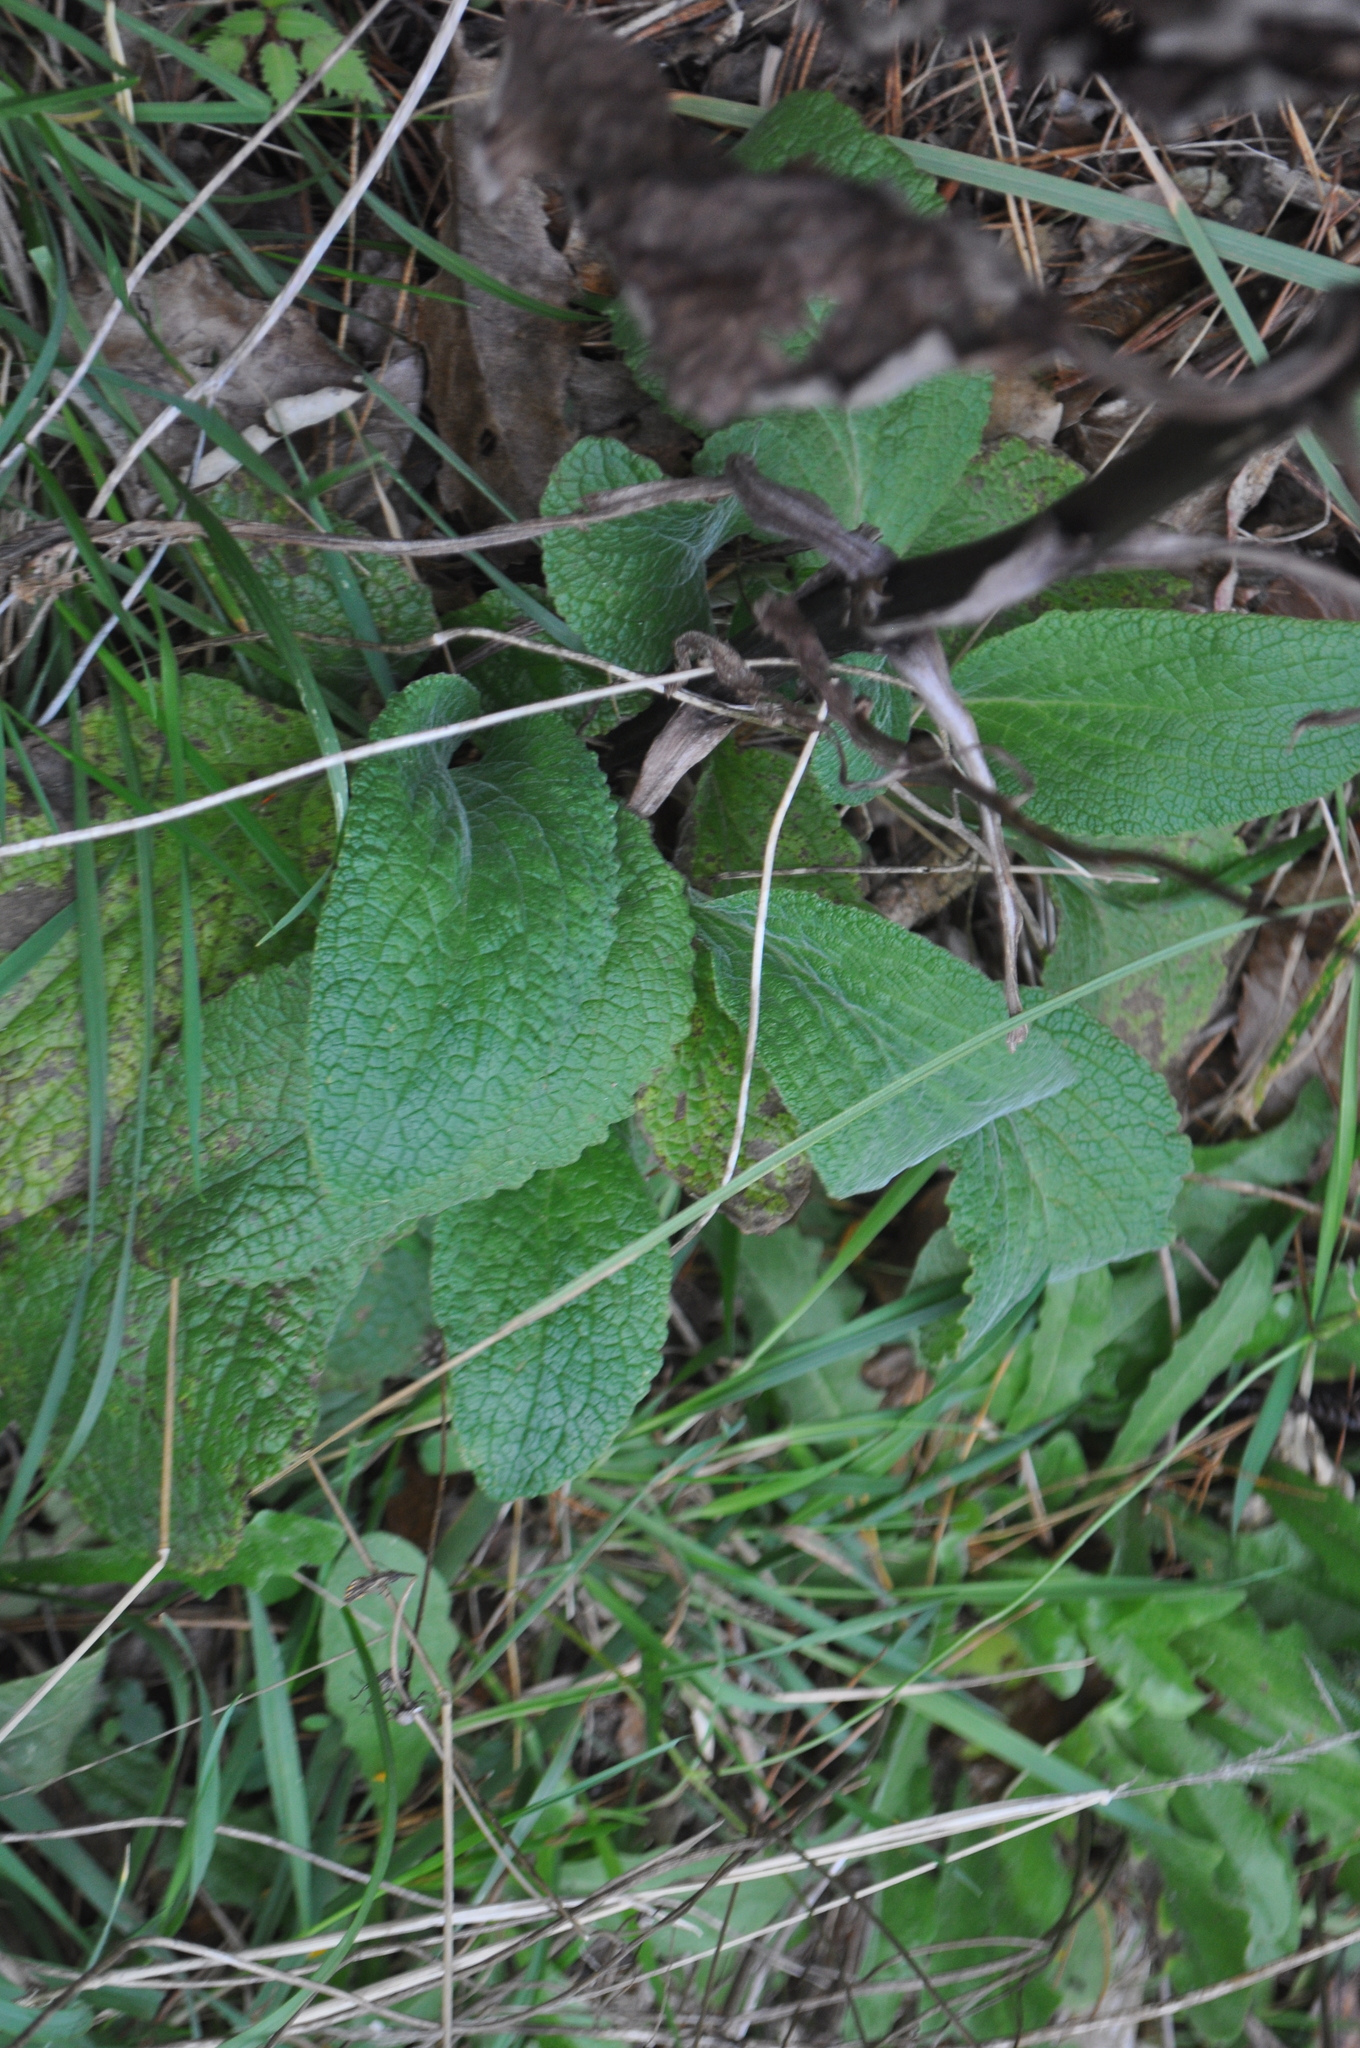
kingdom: Plantae
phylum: Tracheophyta
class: Magnoliopsida
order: Lamiales
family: Plantaginaceae
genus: Digitalis
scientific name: Digitalis purpurea
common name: Foxglove
